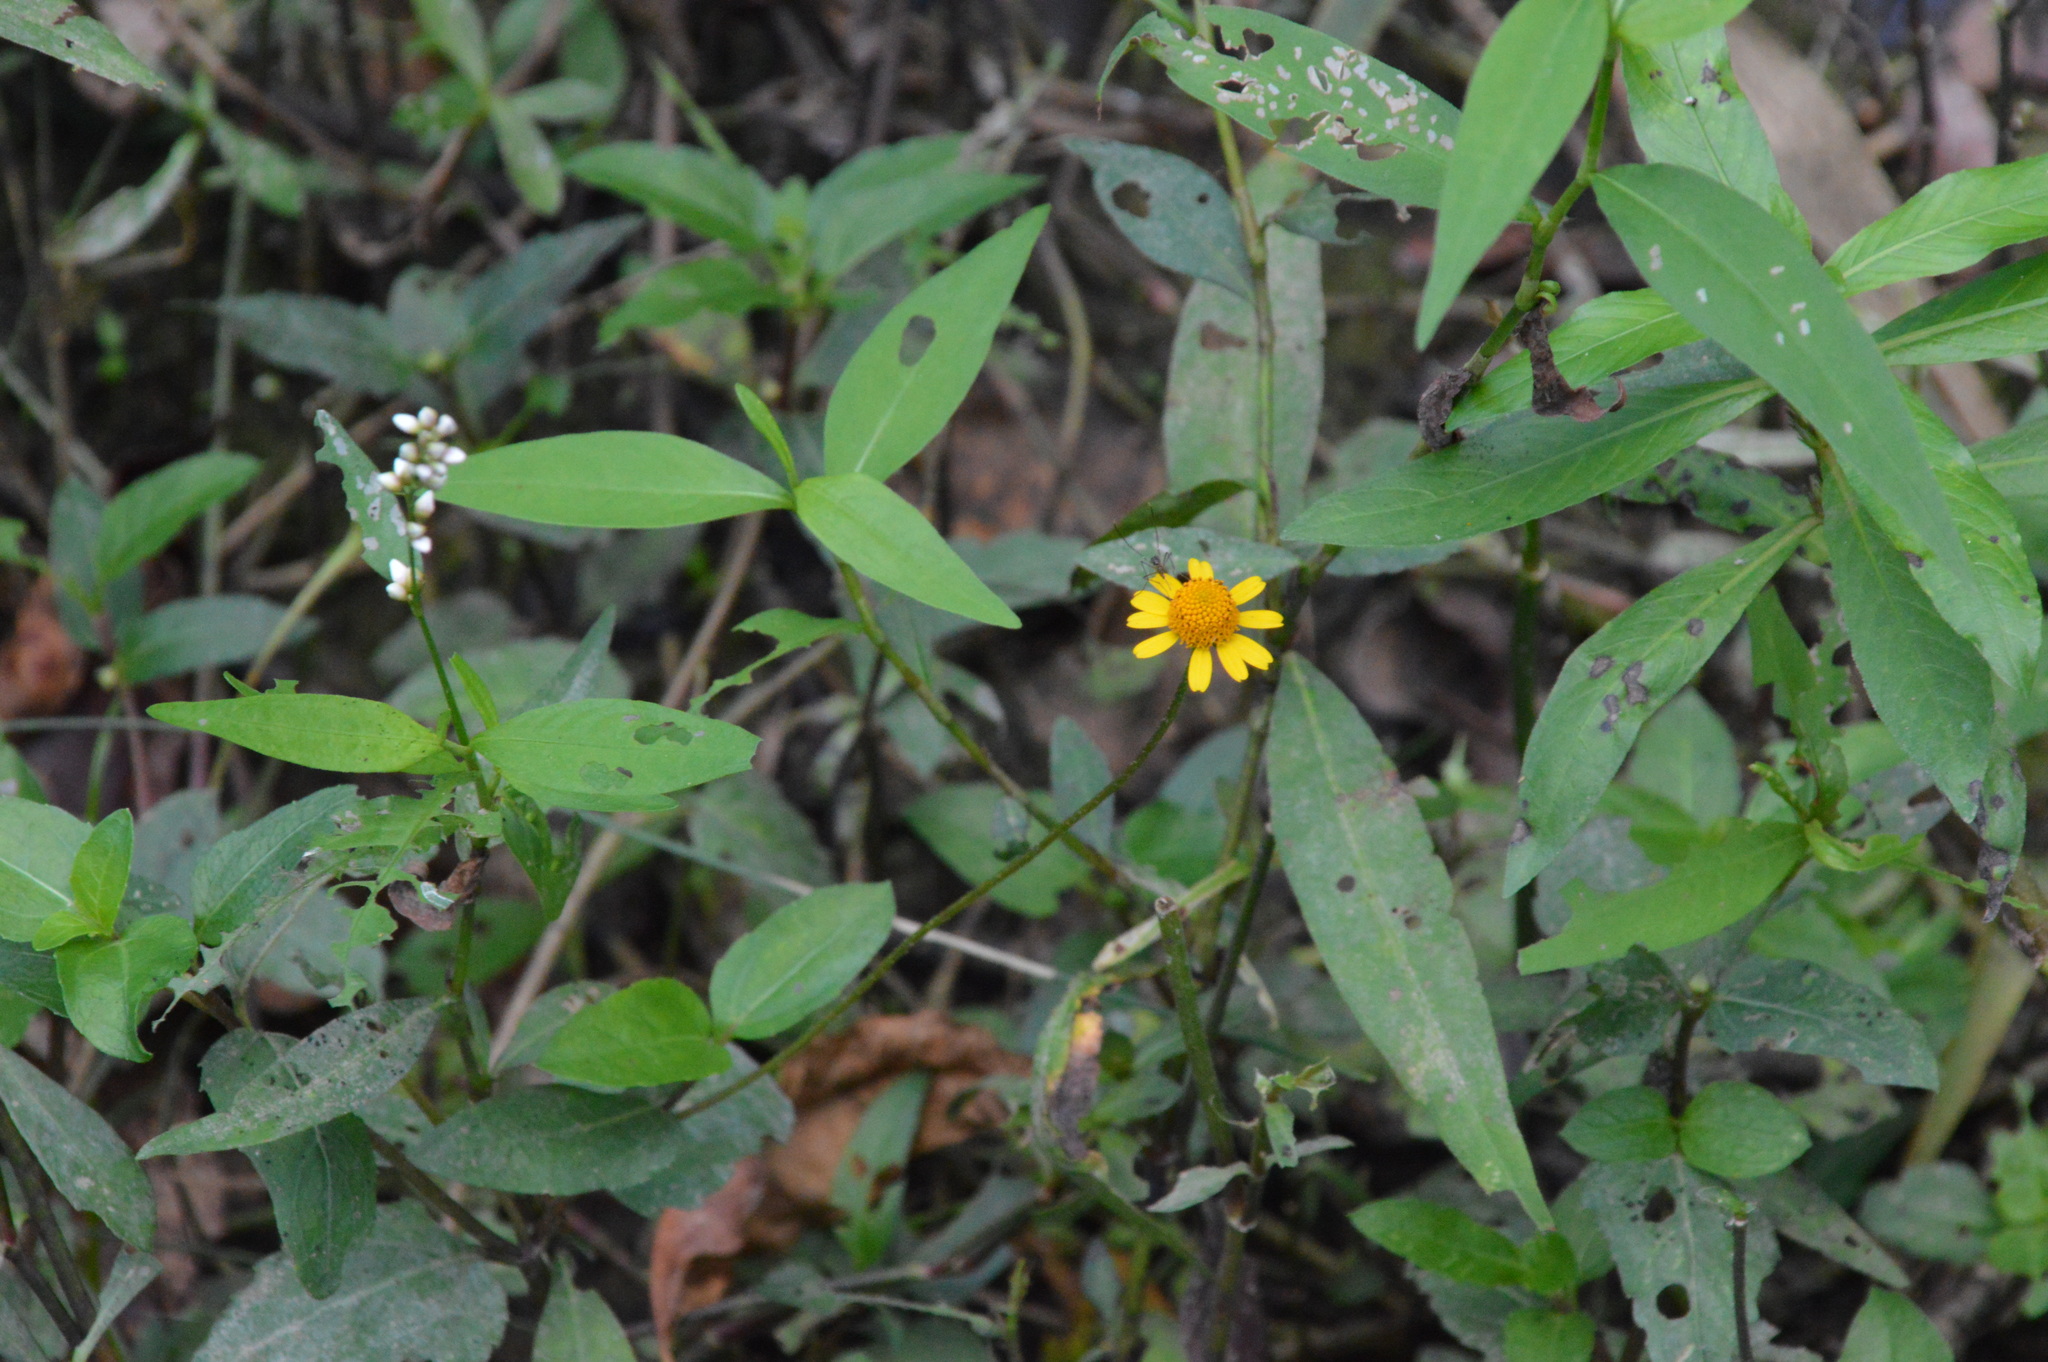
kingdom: Plantae
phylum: Tracheophyta
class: Magnoliopsida
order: Asterales
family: Asteraceae
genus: Acmella
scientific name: Acmella repens
